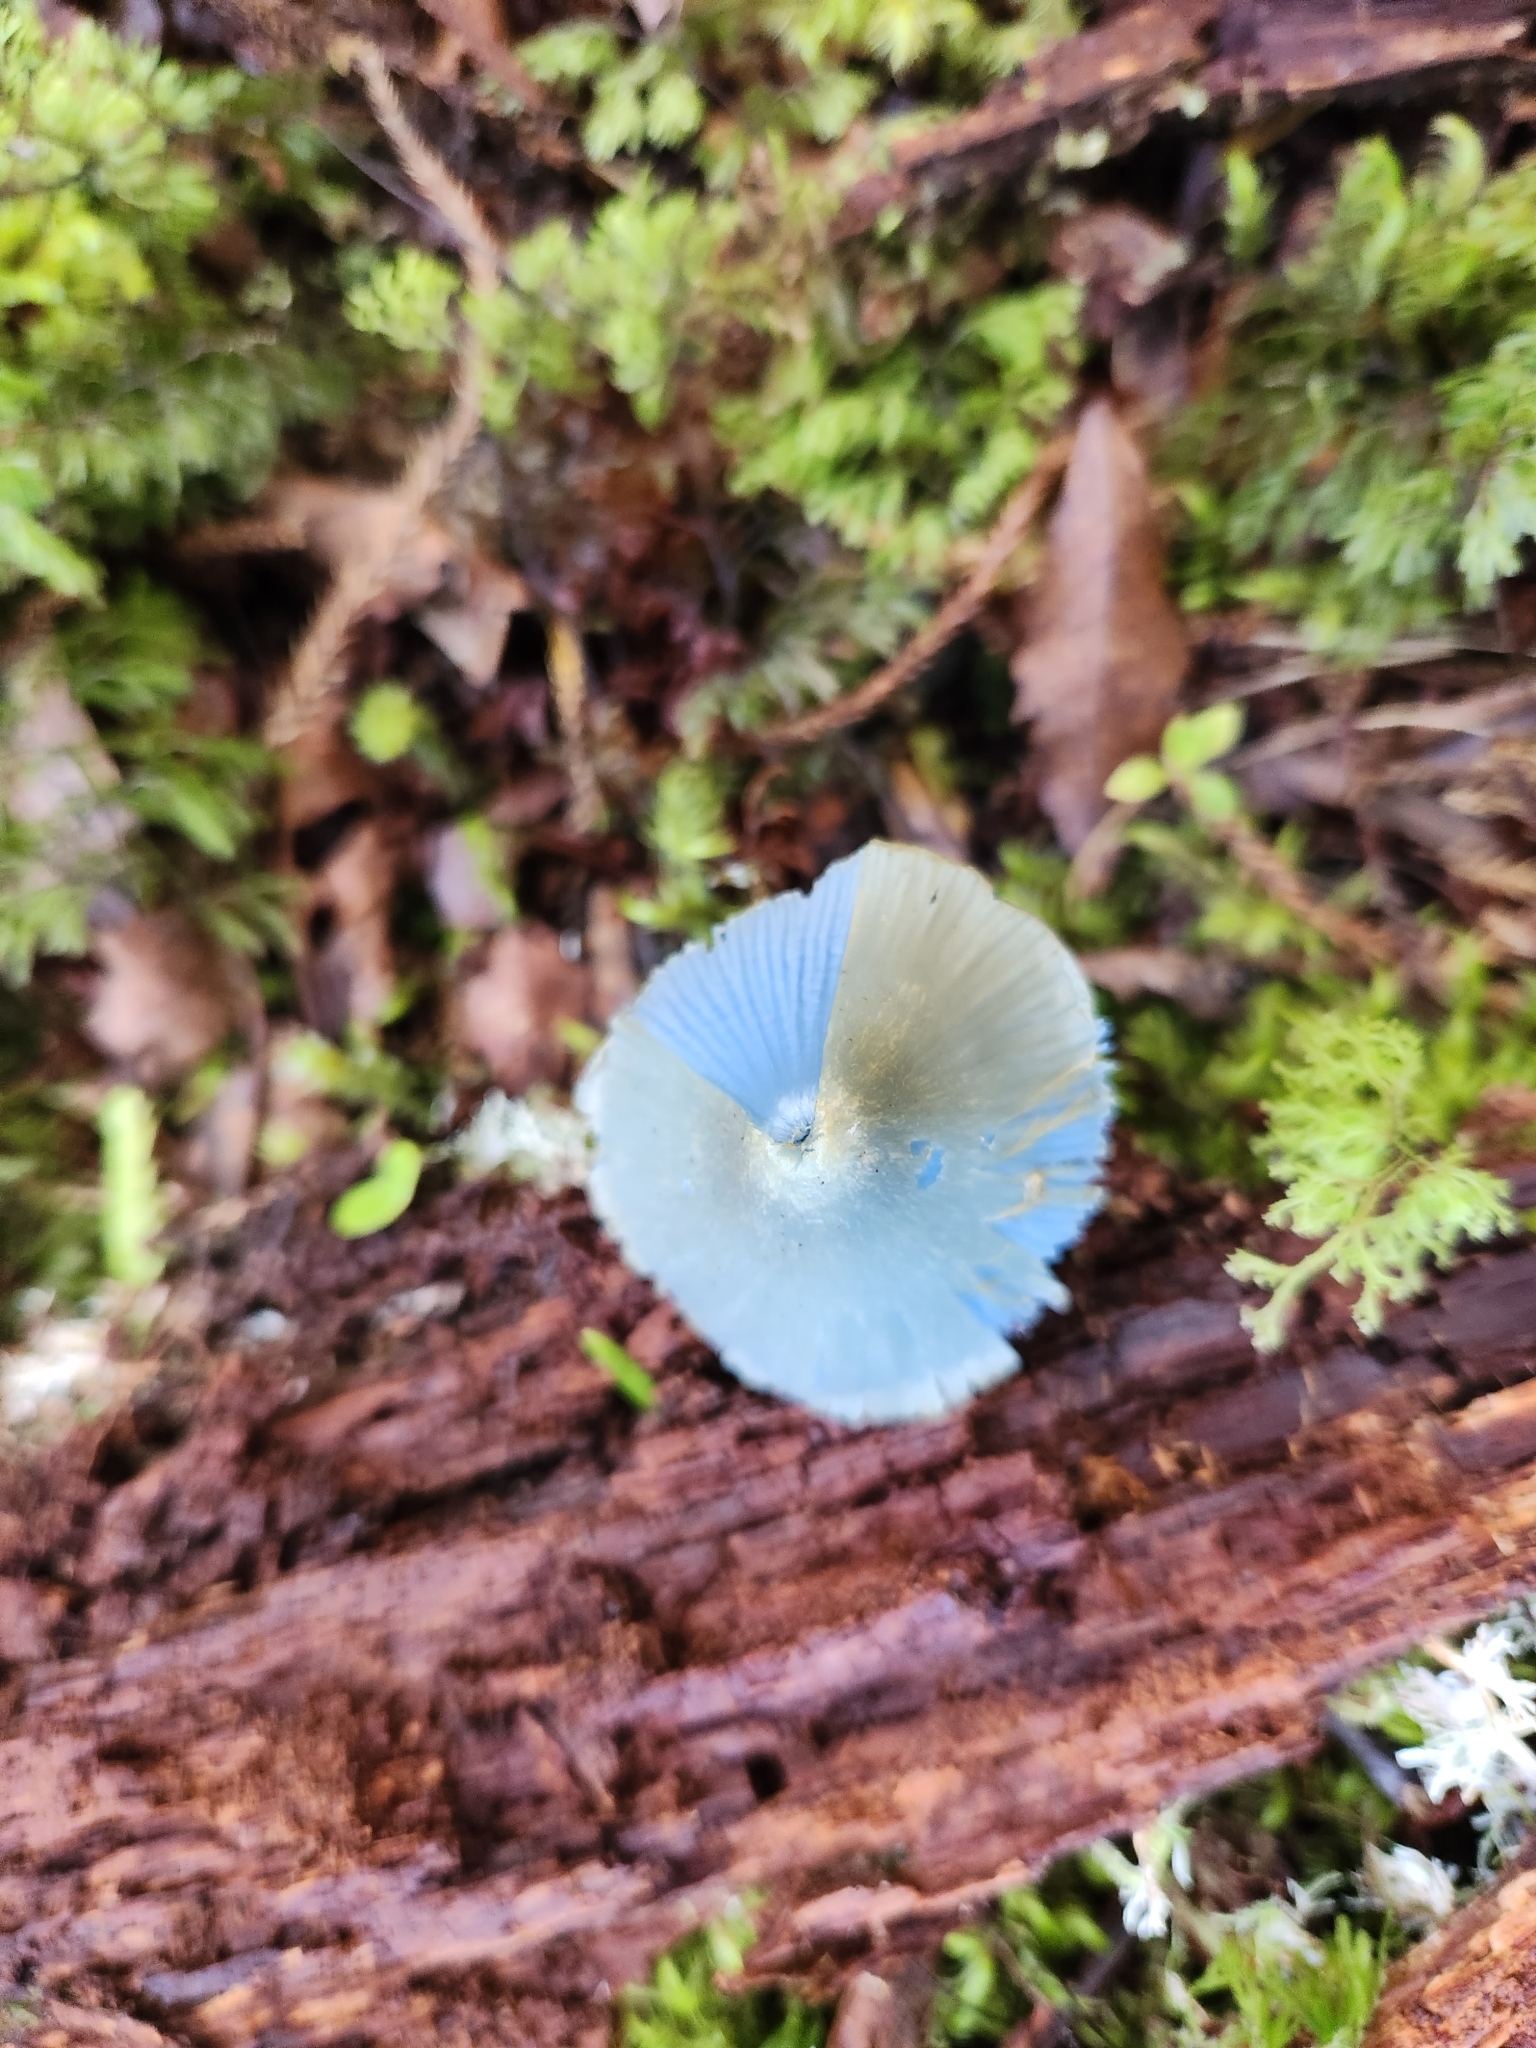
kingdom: Fungi
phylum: Basidiomycota
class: Agaricomycetes
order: Agaricales
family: Entolomataceae
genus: Entoloma
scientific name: Entoloma hochstetteri
